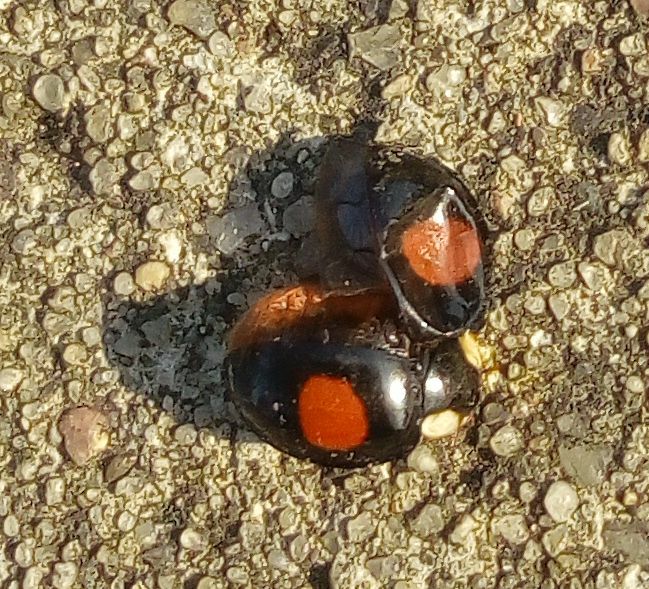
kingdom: Animalia
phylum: Arthropoda
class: Insecta
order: Coleoptera
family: Coccinellidae
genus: Harmonia
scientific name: Harmonia axyridis
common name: Harlequin ladybird
